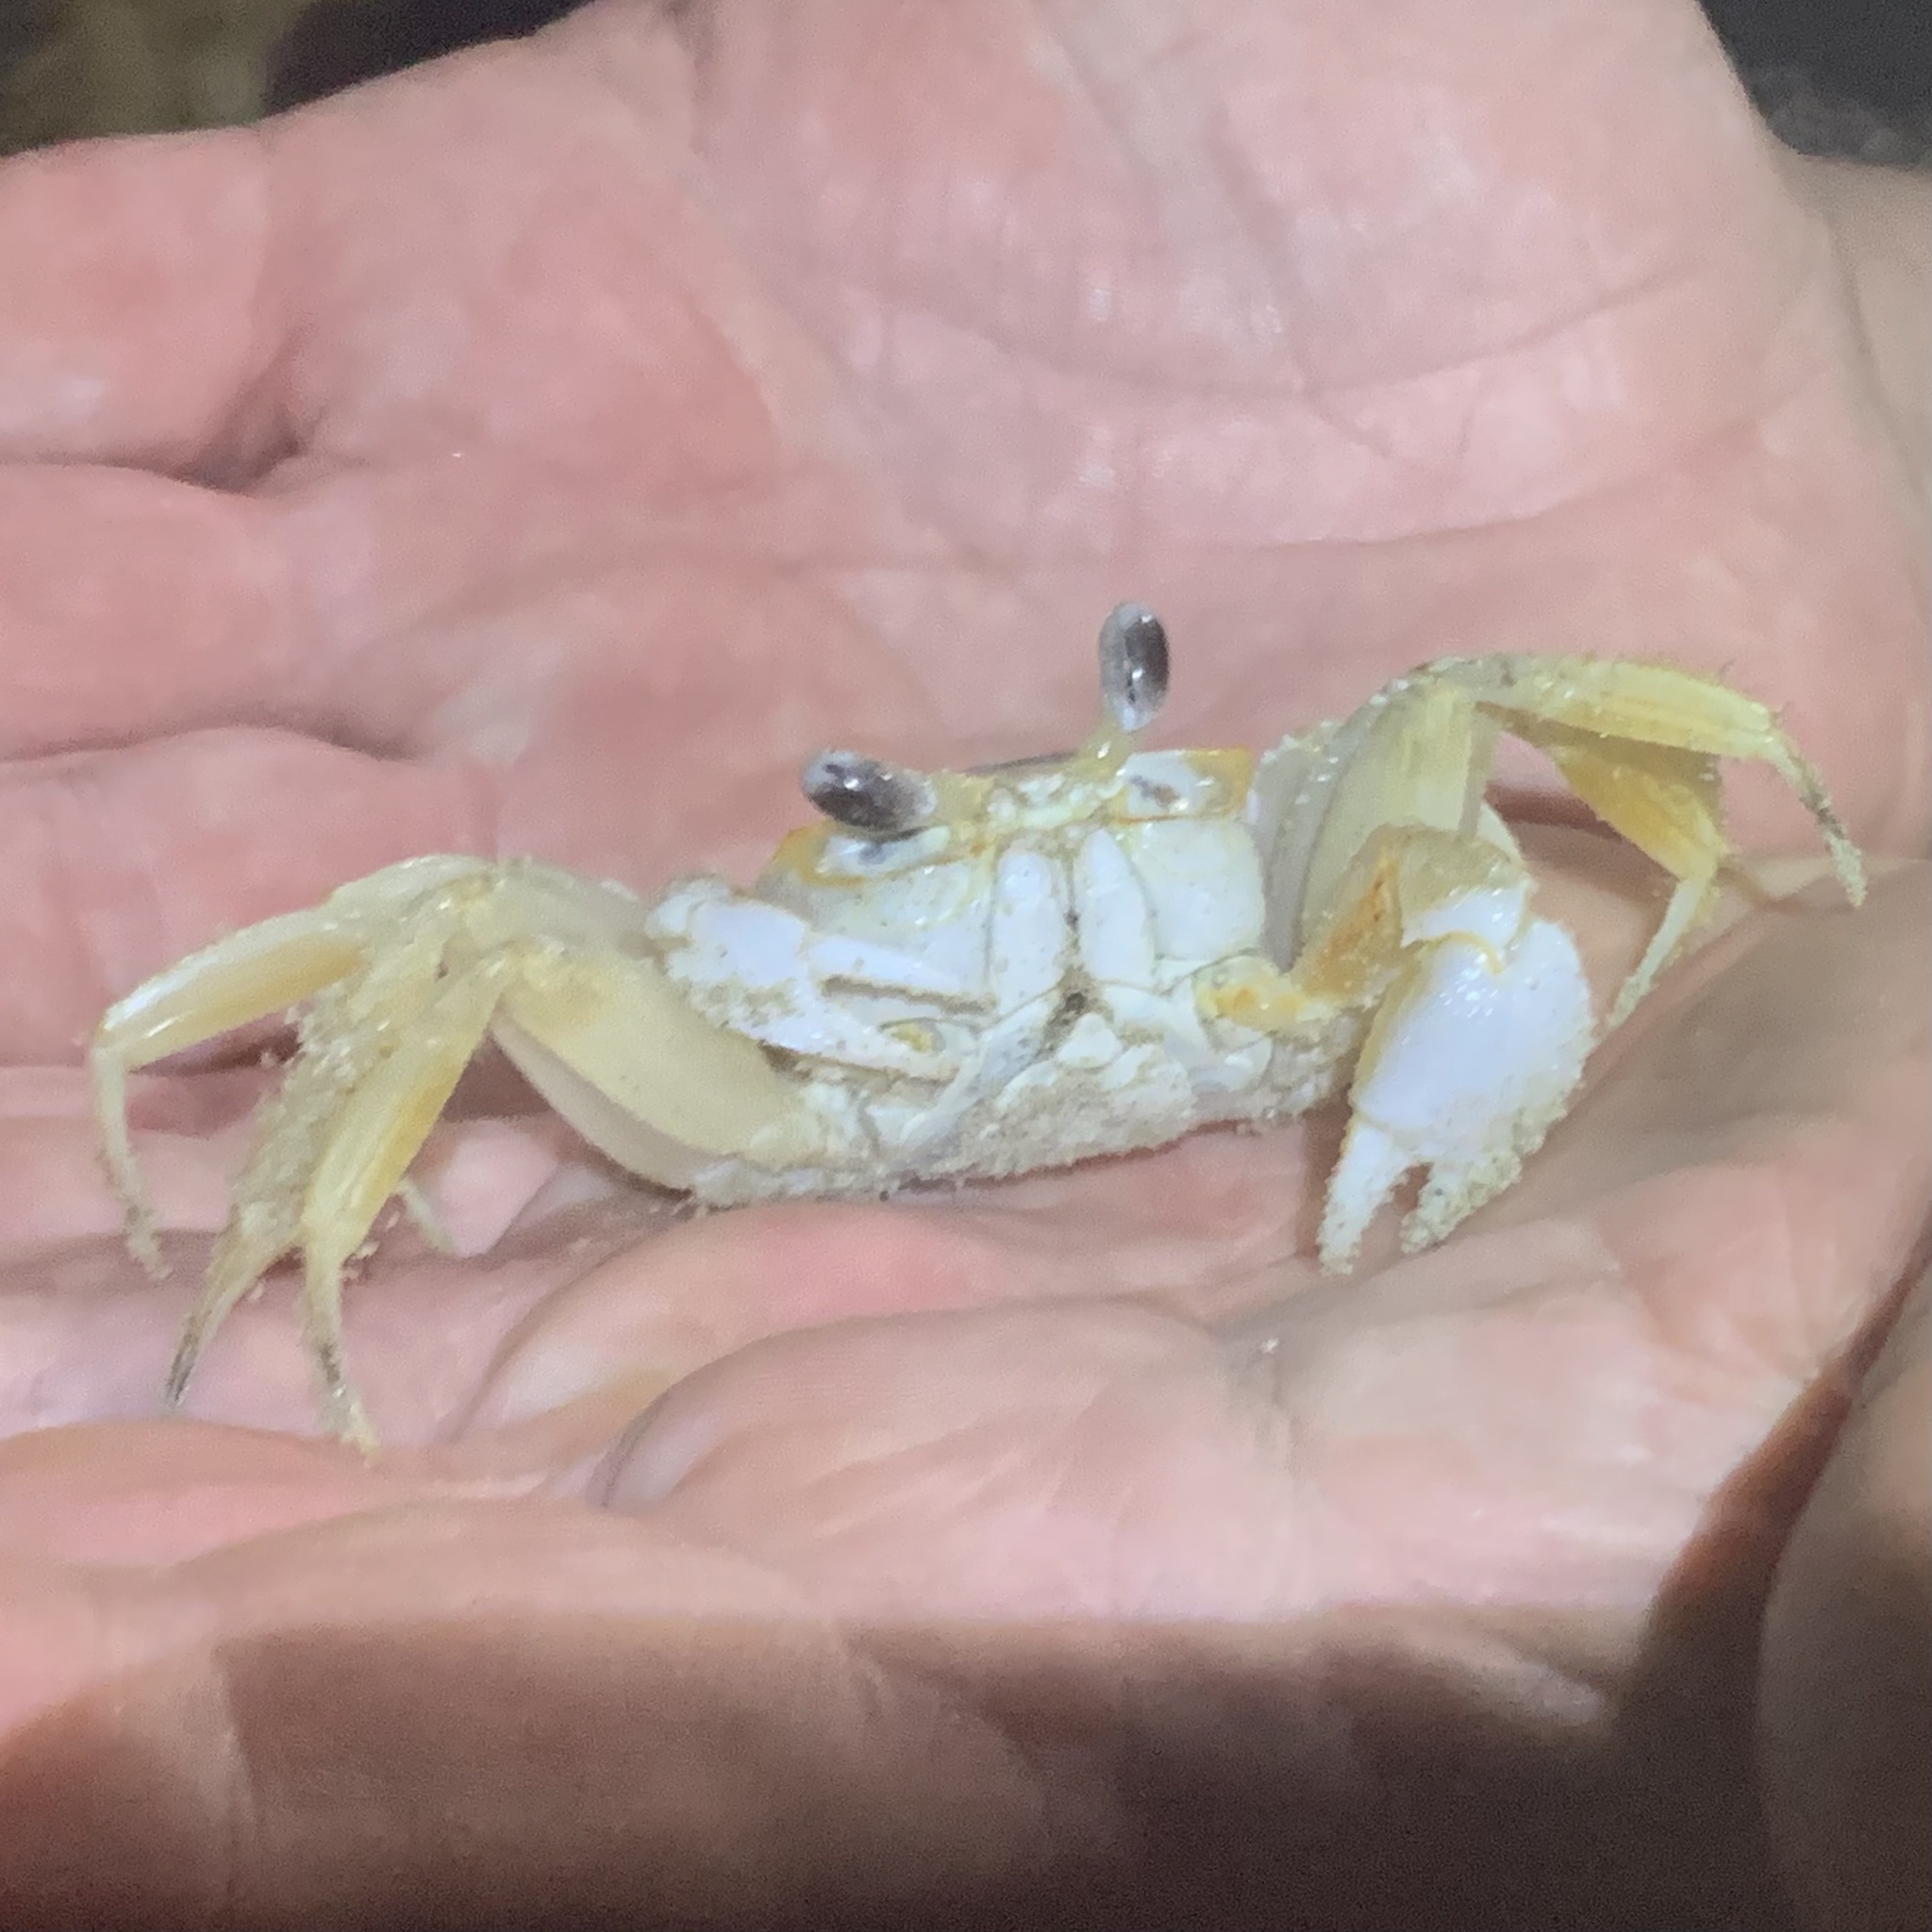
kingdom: Animalia
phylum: Arthropoda
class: Malacostraca
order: Decapoda
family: Ocypodidae
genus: Ocypode
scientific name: Ocypode quadrata
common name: Ghost crab
